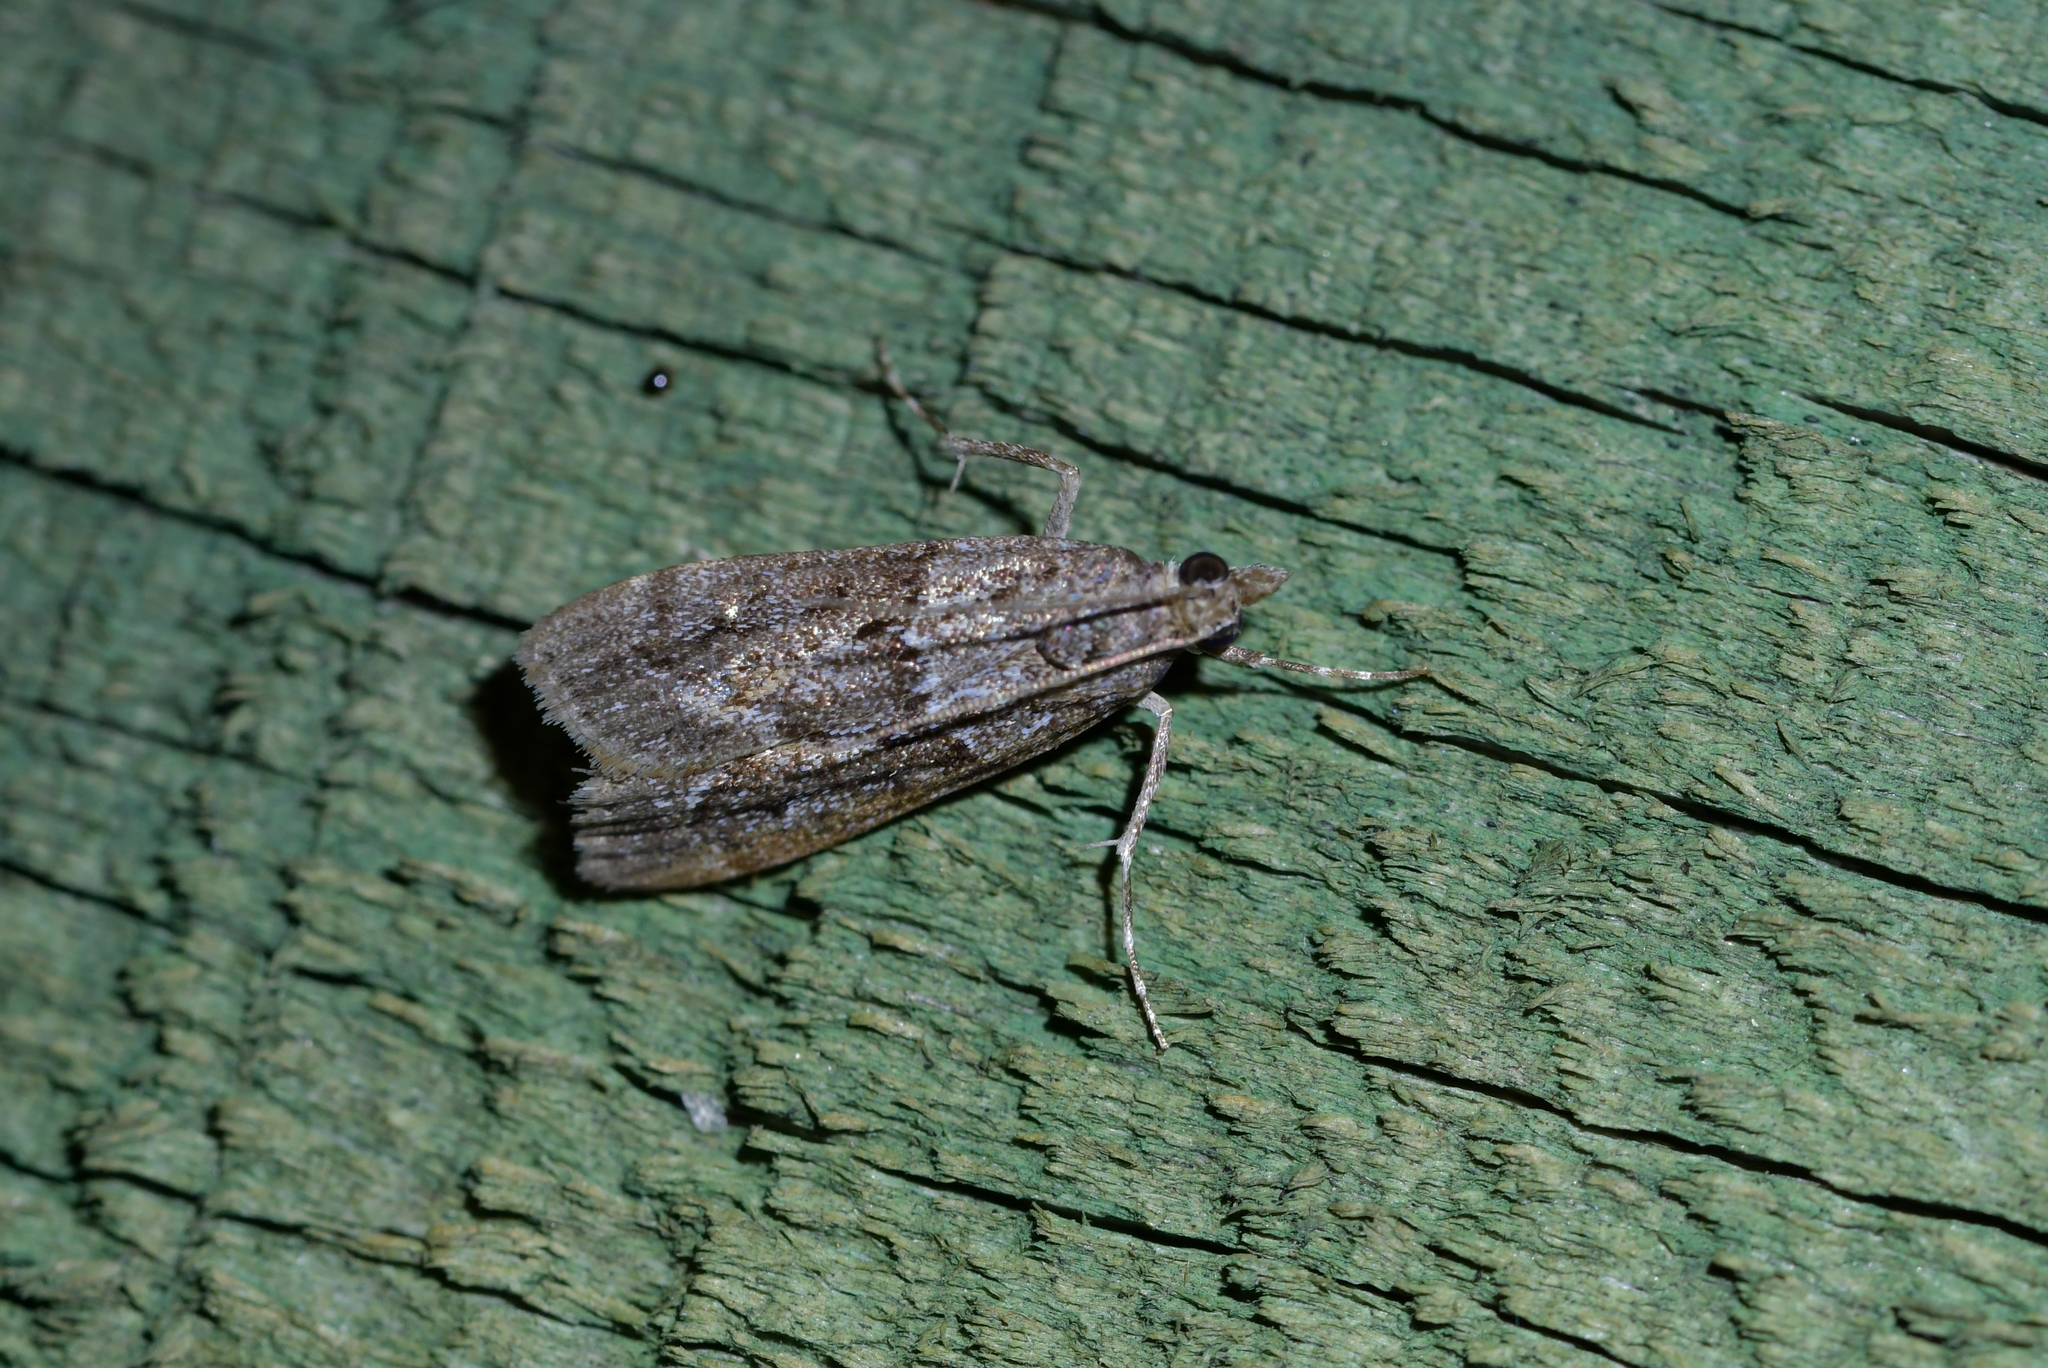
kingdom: Animalia
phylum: Arthropoda
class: Insecta
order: Lepidoptera
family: Crambidae
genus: Eudonia
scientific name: Eudonia submarginalis
